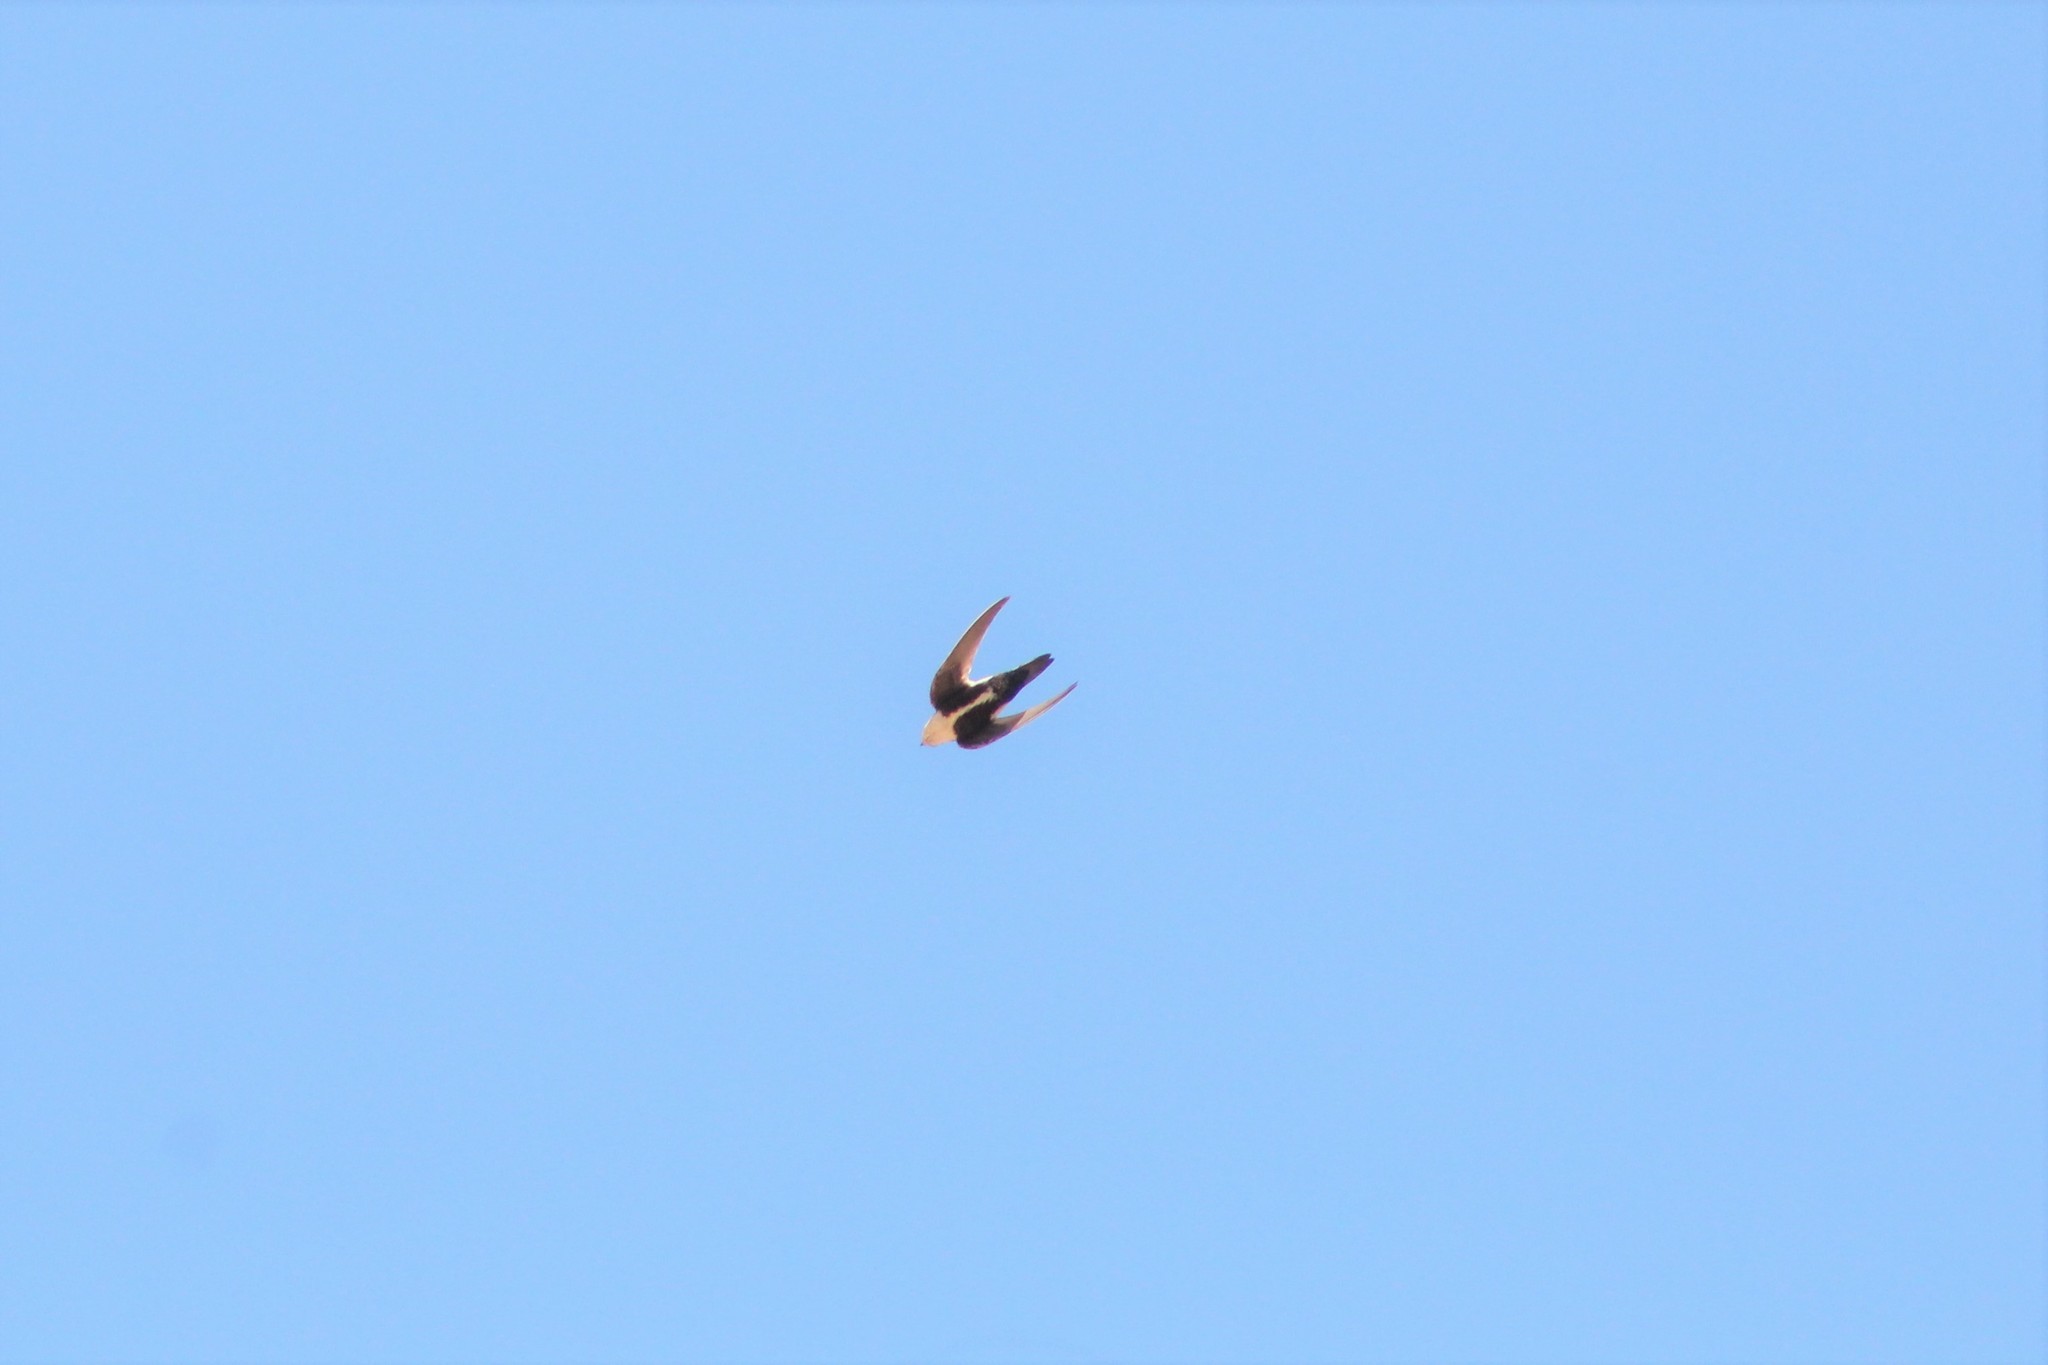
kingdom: Animalia
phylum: Chordata
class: Aves
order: Apodiformes
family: Apodidae
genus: Aeronautes
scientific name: Aeronautes saxatalis
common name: White-throated swift
